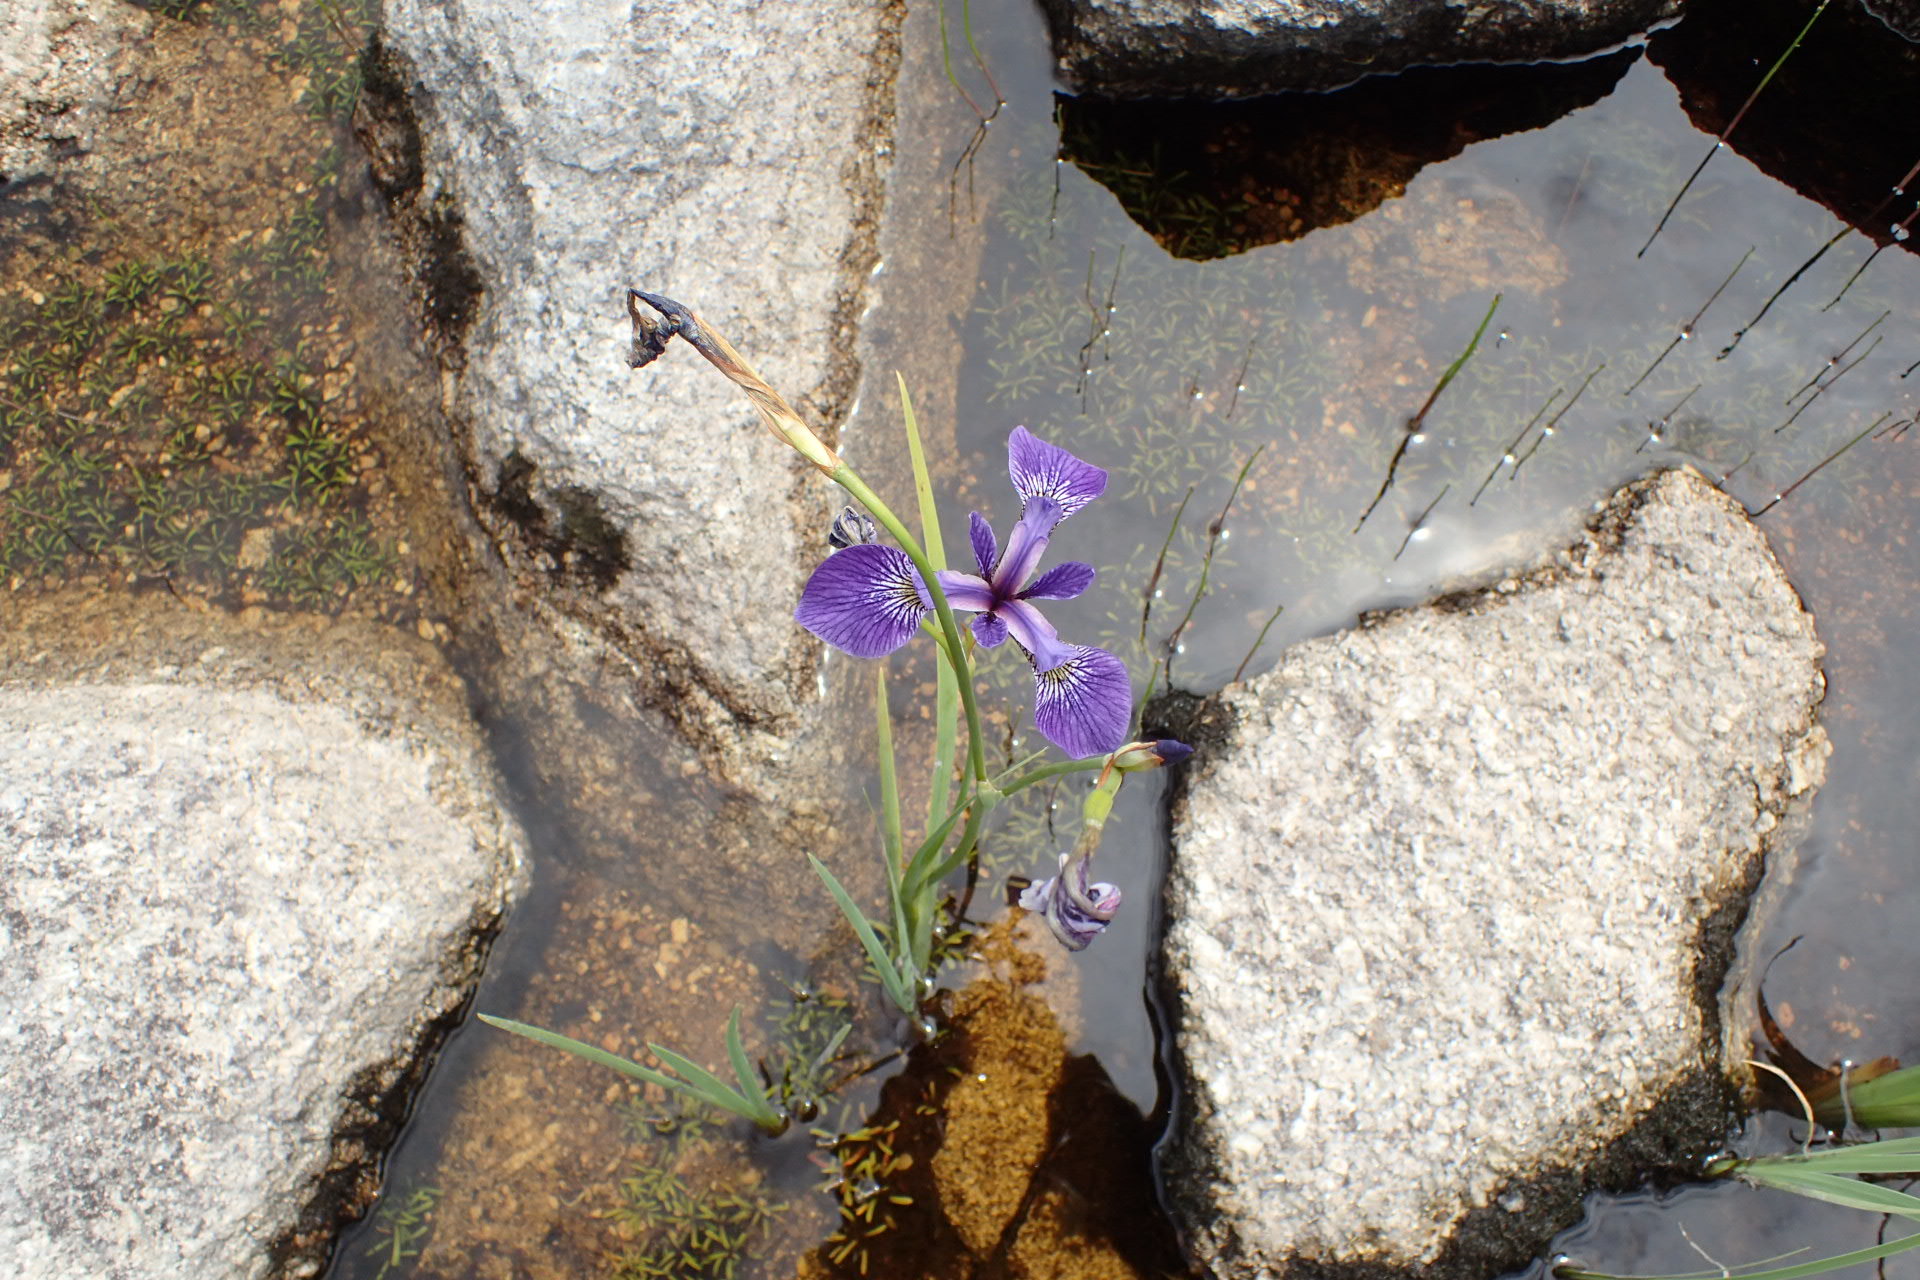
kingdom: Plantae
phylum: Tracheophyta
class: Liliopsida
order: Asparagales
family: Iridaceae
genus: Iris
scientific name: Iris versicolor
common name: Purple iris
